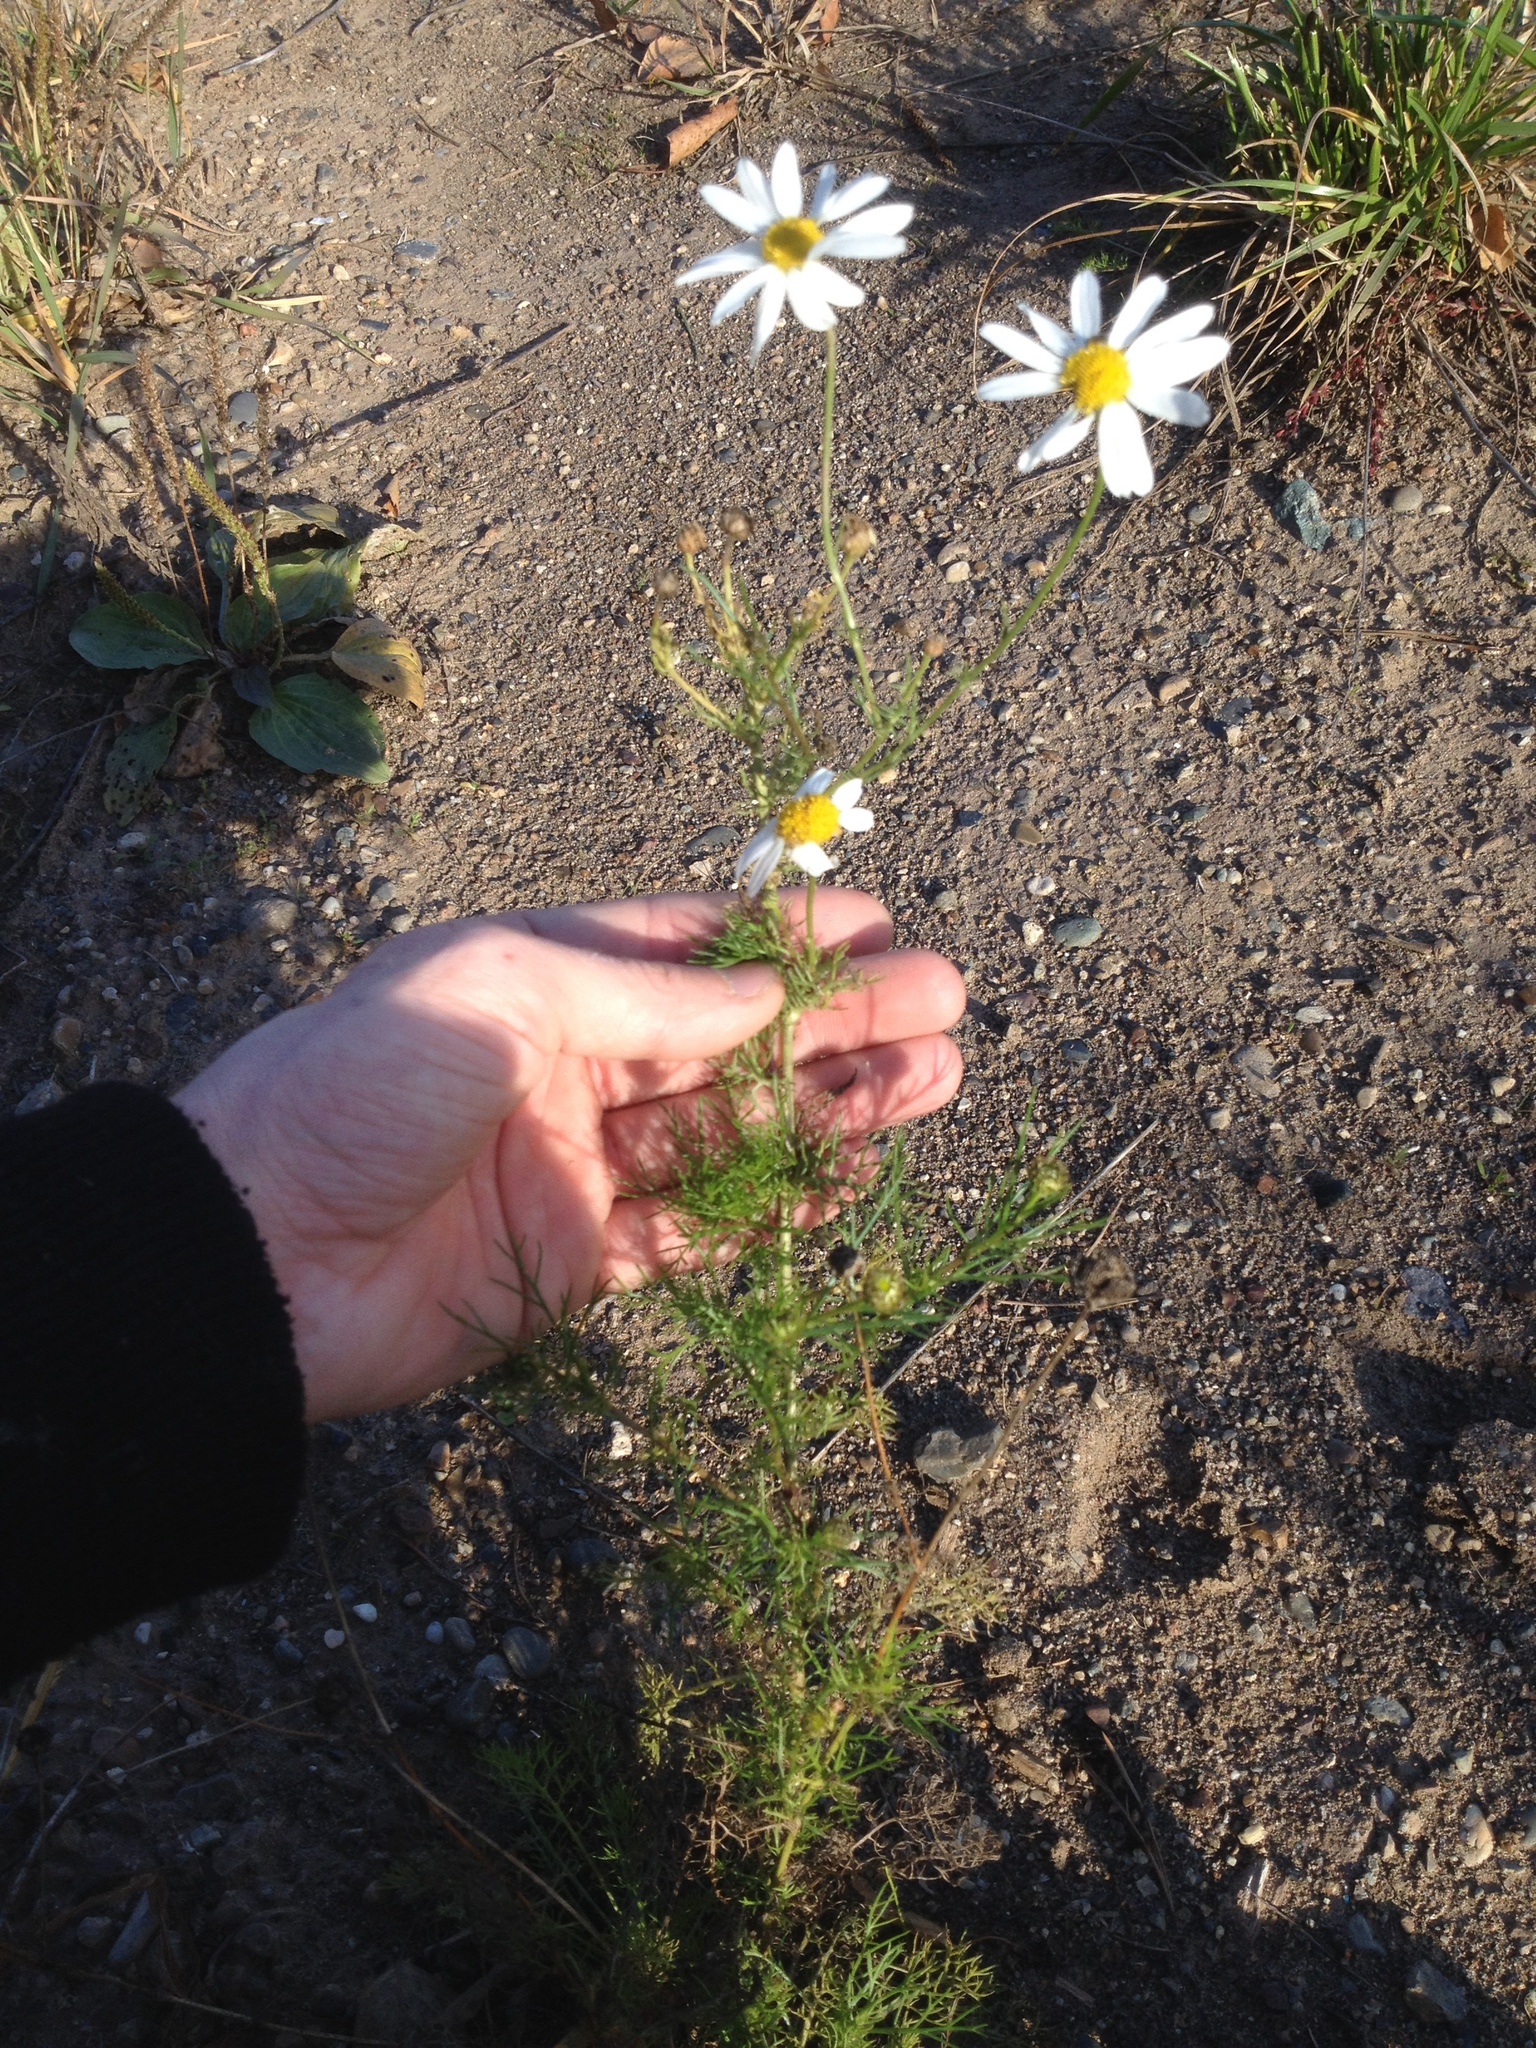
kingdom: Plantae
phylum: Tracheophyta
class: Magnoliopsida
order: Asterales
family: Asteraceae
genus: Tripleurospermum
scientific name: Tripleurospermum inodorum
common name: Scentless mayweed
